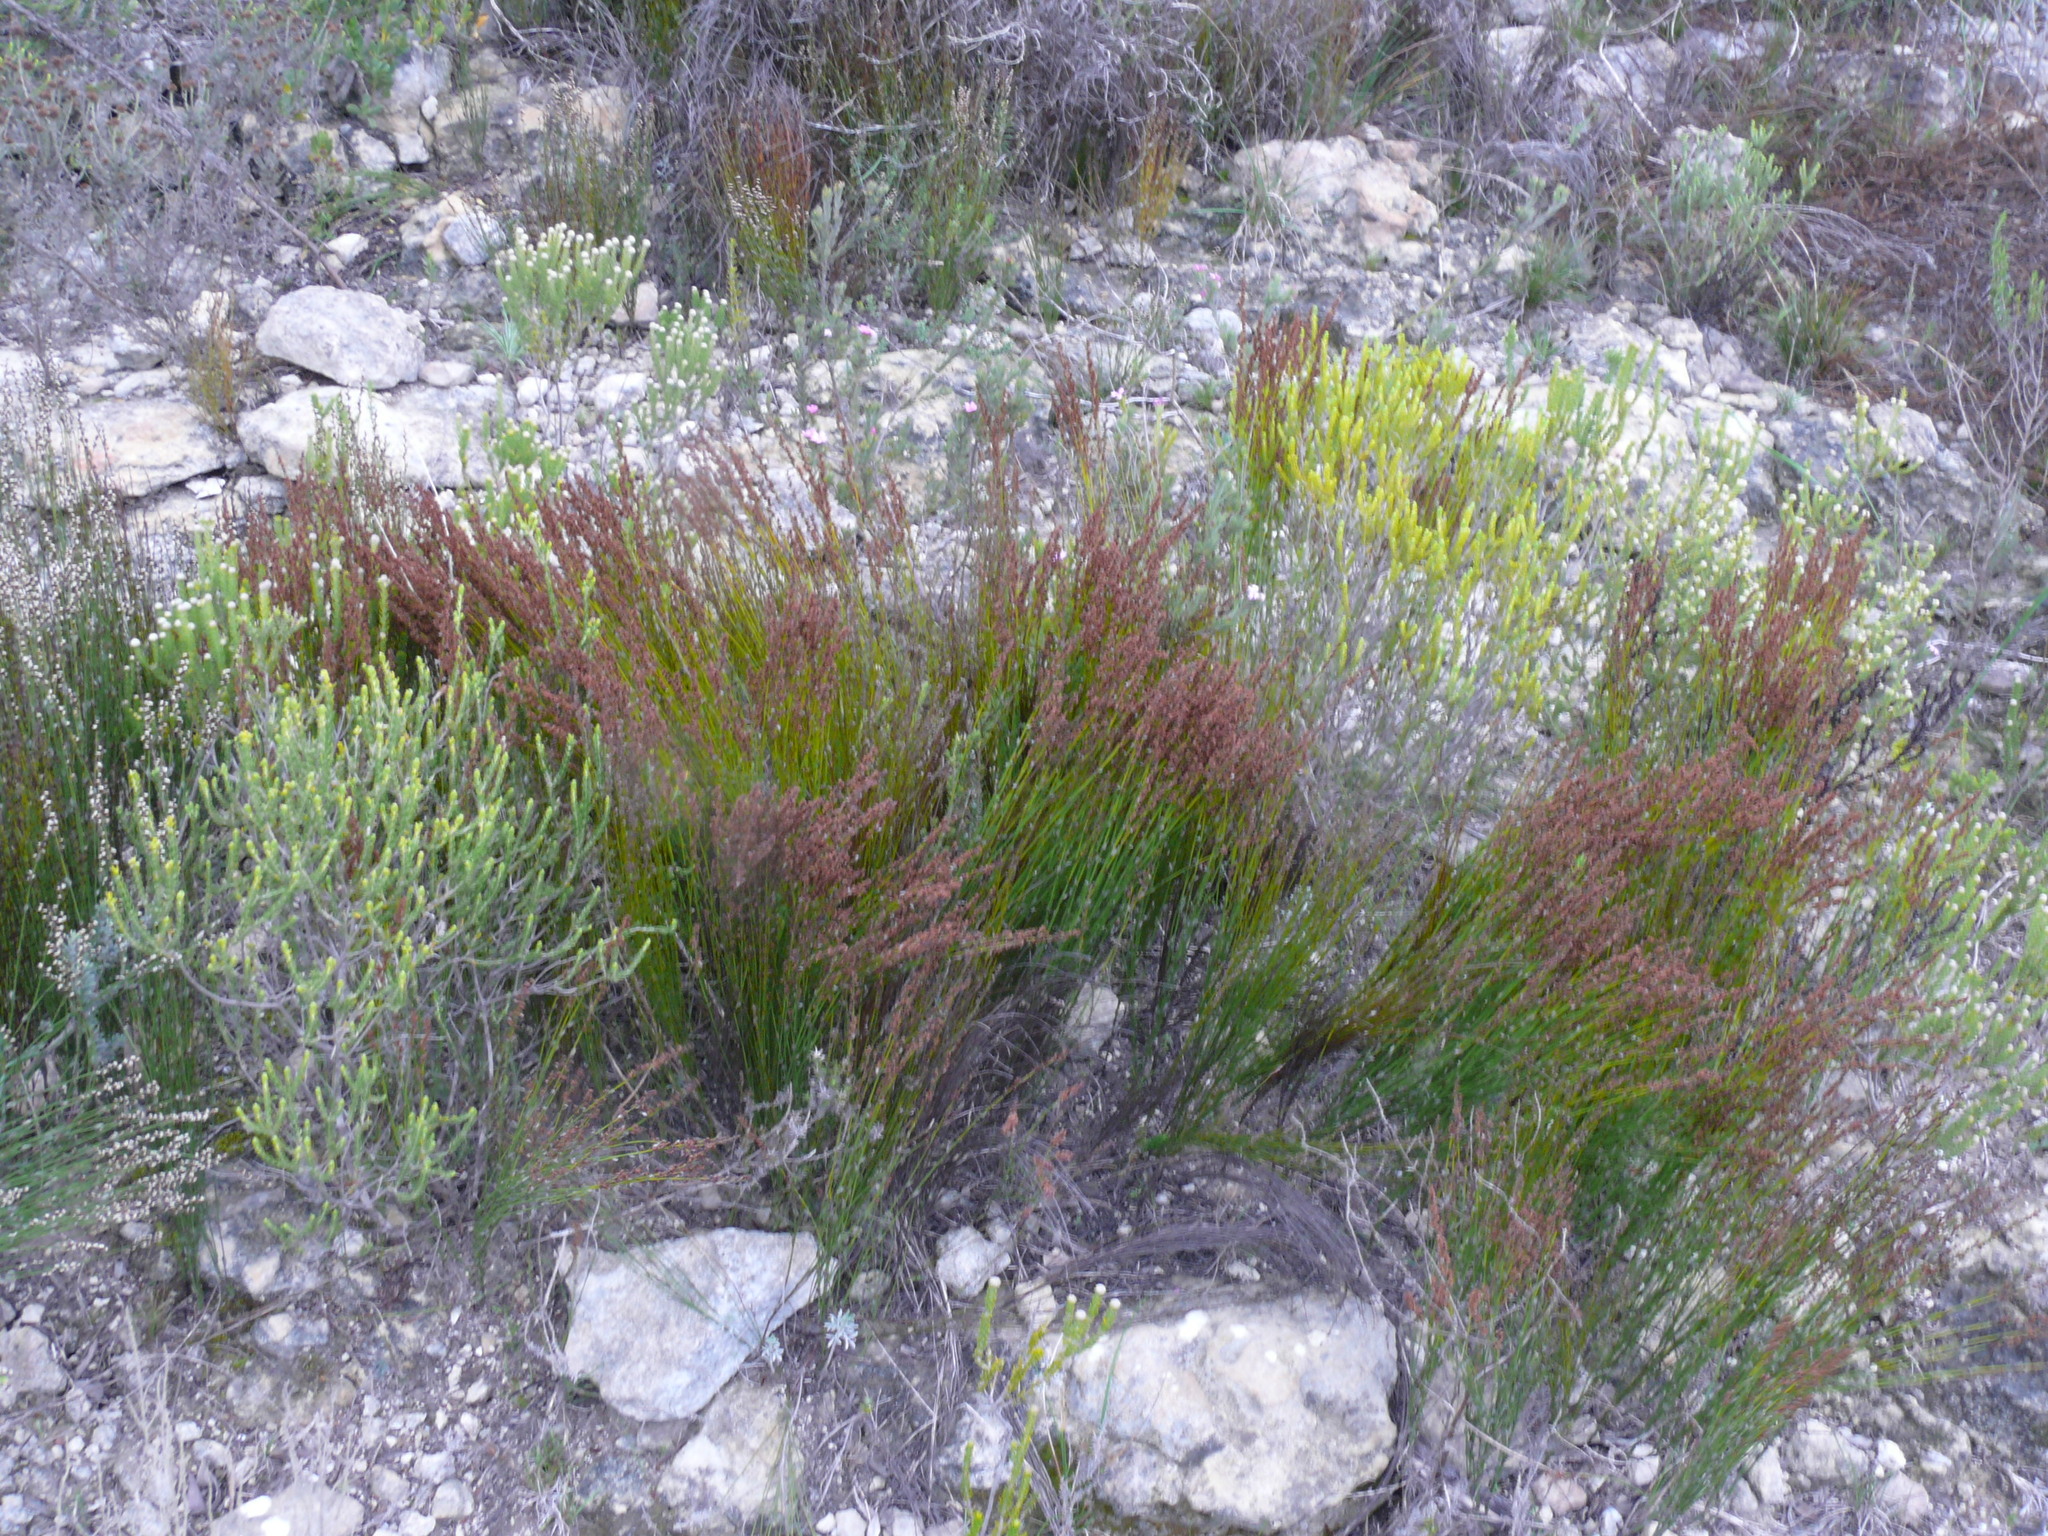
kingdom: Plantae
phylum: Tracheophyta
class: Liliopsida
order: Poales
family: Restionaceae
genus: Elegia
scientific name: Elegia microcarpa
